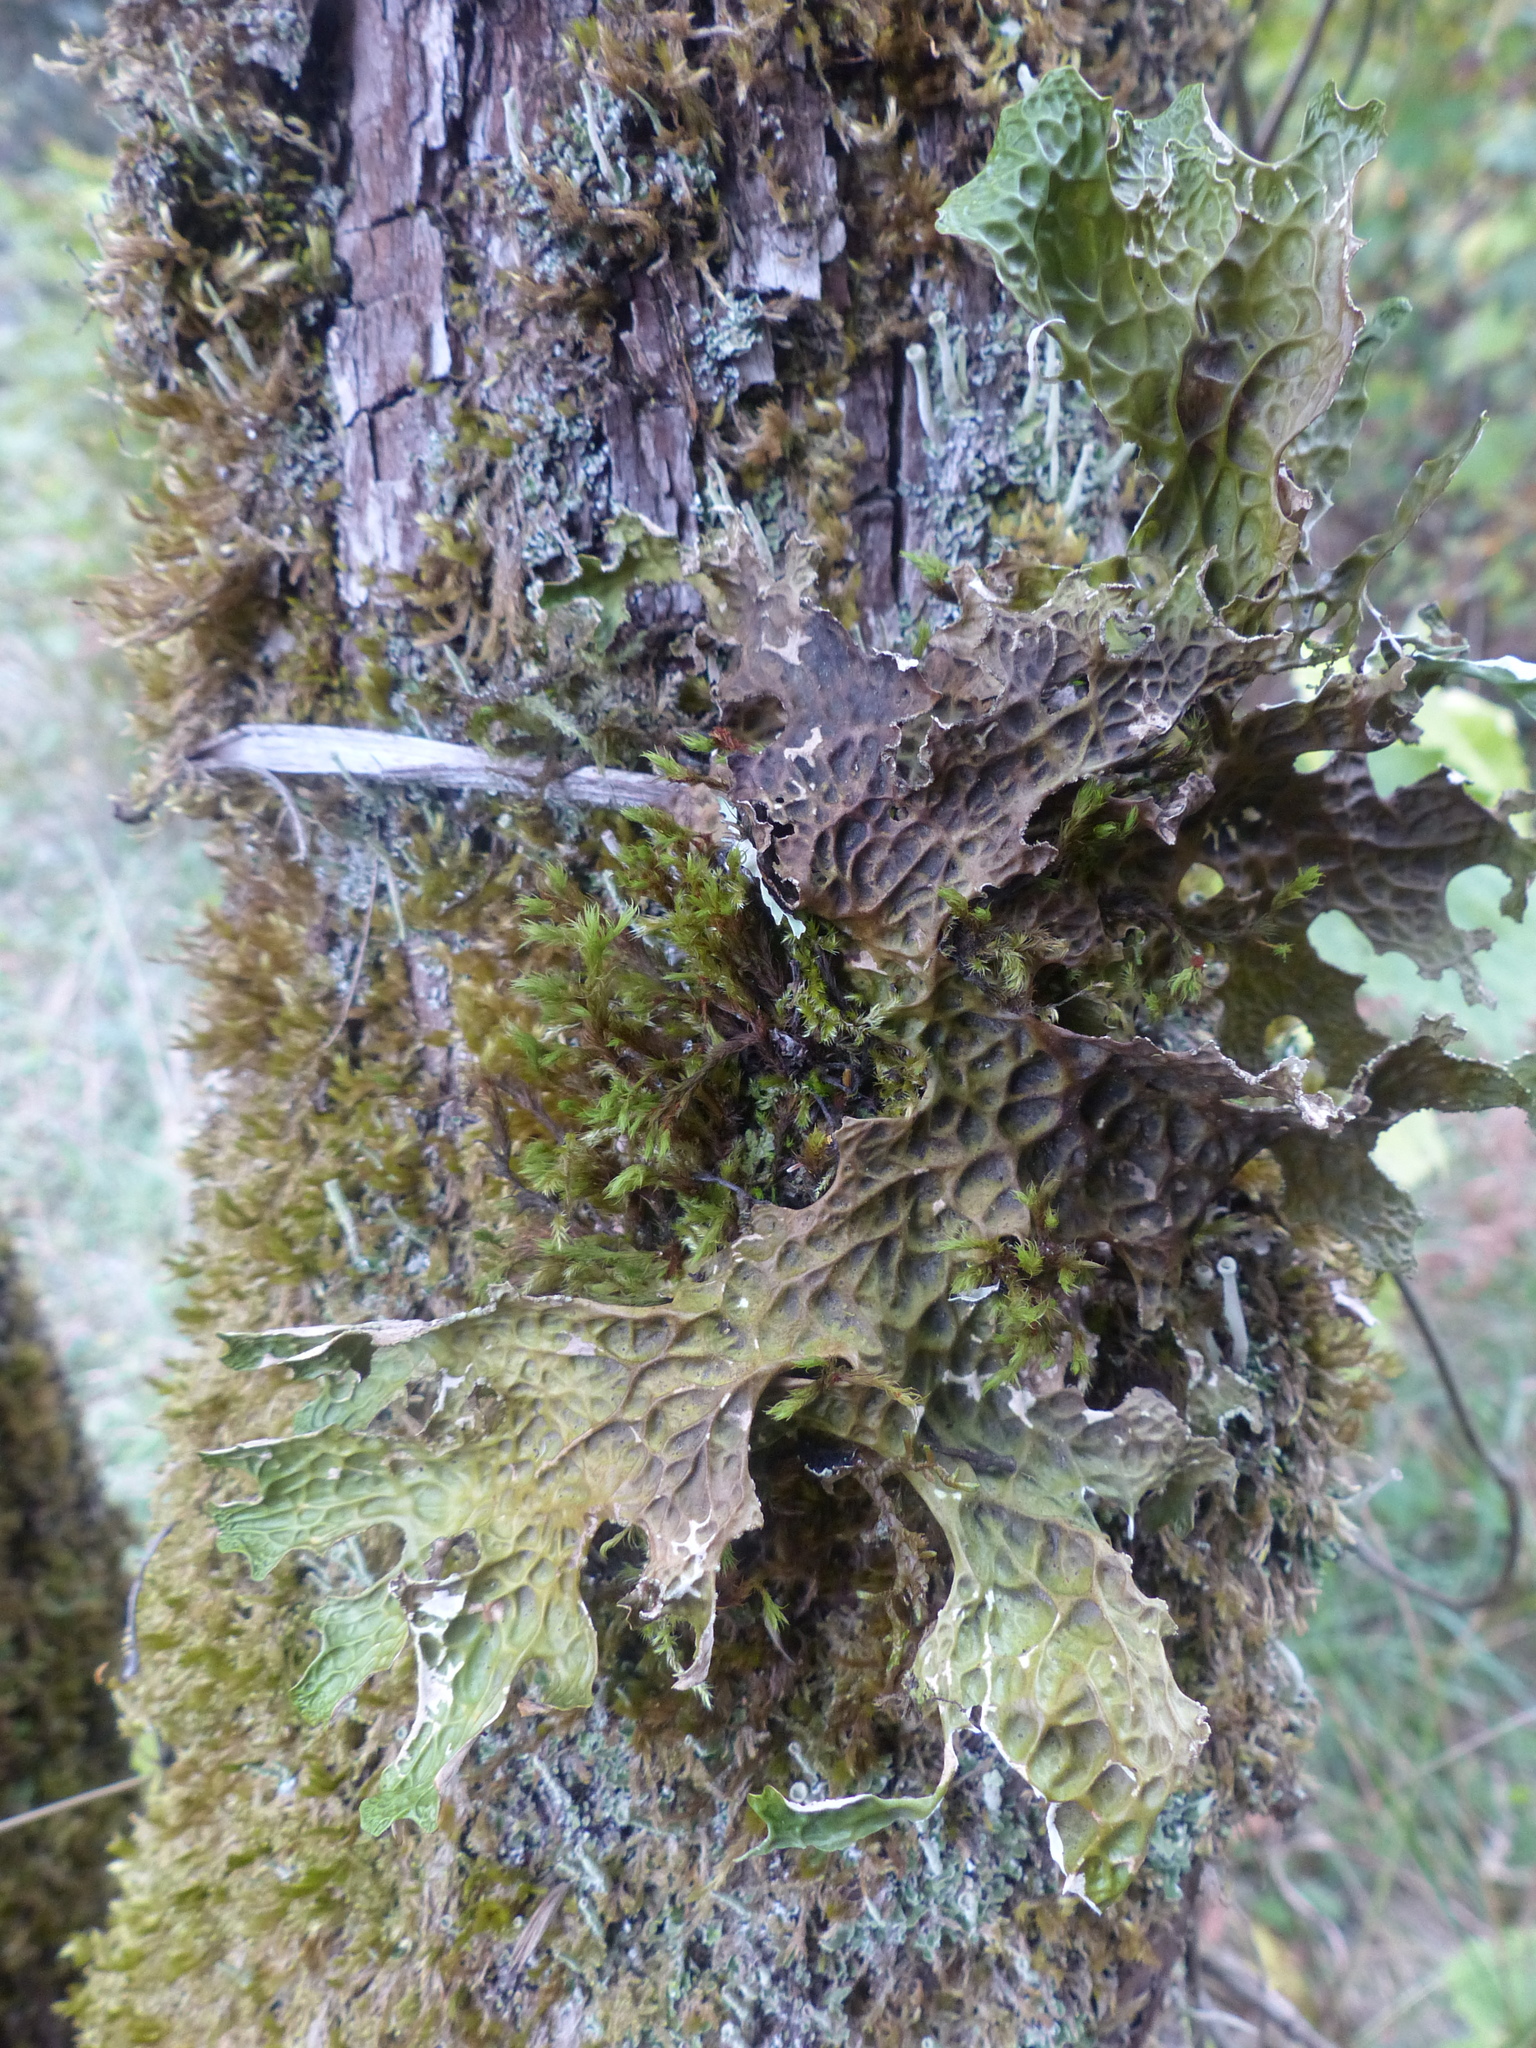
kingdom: Fungi
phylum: Ascomycota
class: Lecanoromycetes
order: Peltigerales
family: Lobariaceae
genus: Lobaria
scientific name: Lobaria pulmonaria
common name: Lungwort
